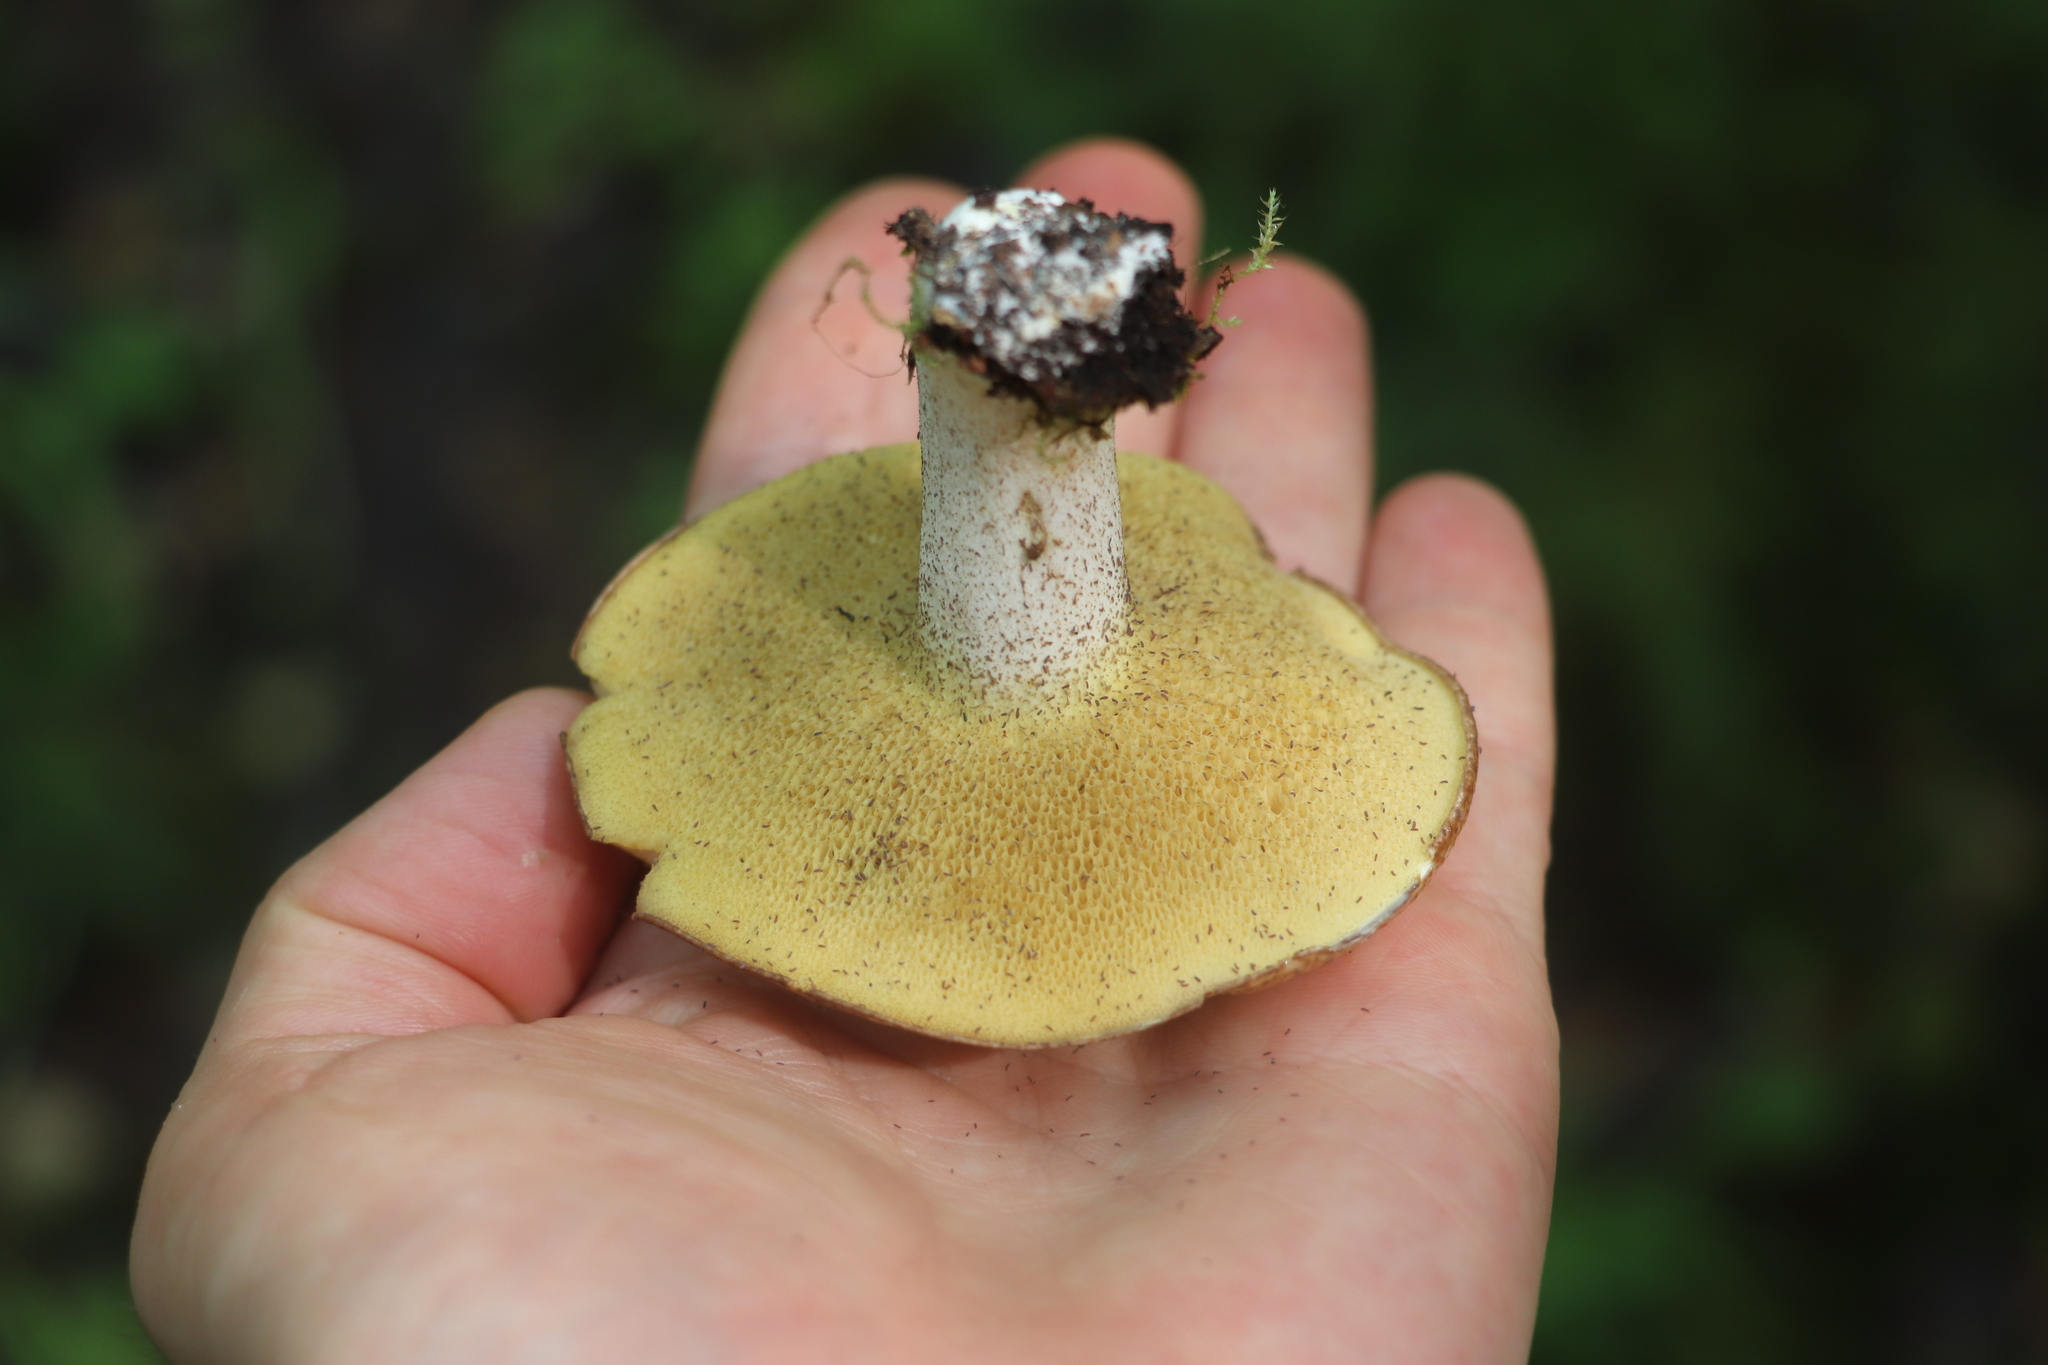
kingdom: Fungi
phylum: Basidiomycota
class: Agaricomycetes
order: Boletales
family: Suillaceae
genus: Suillus
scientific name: Suillus placidus
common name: Slippery white bolete
